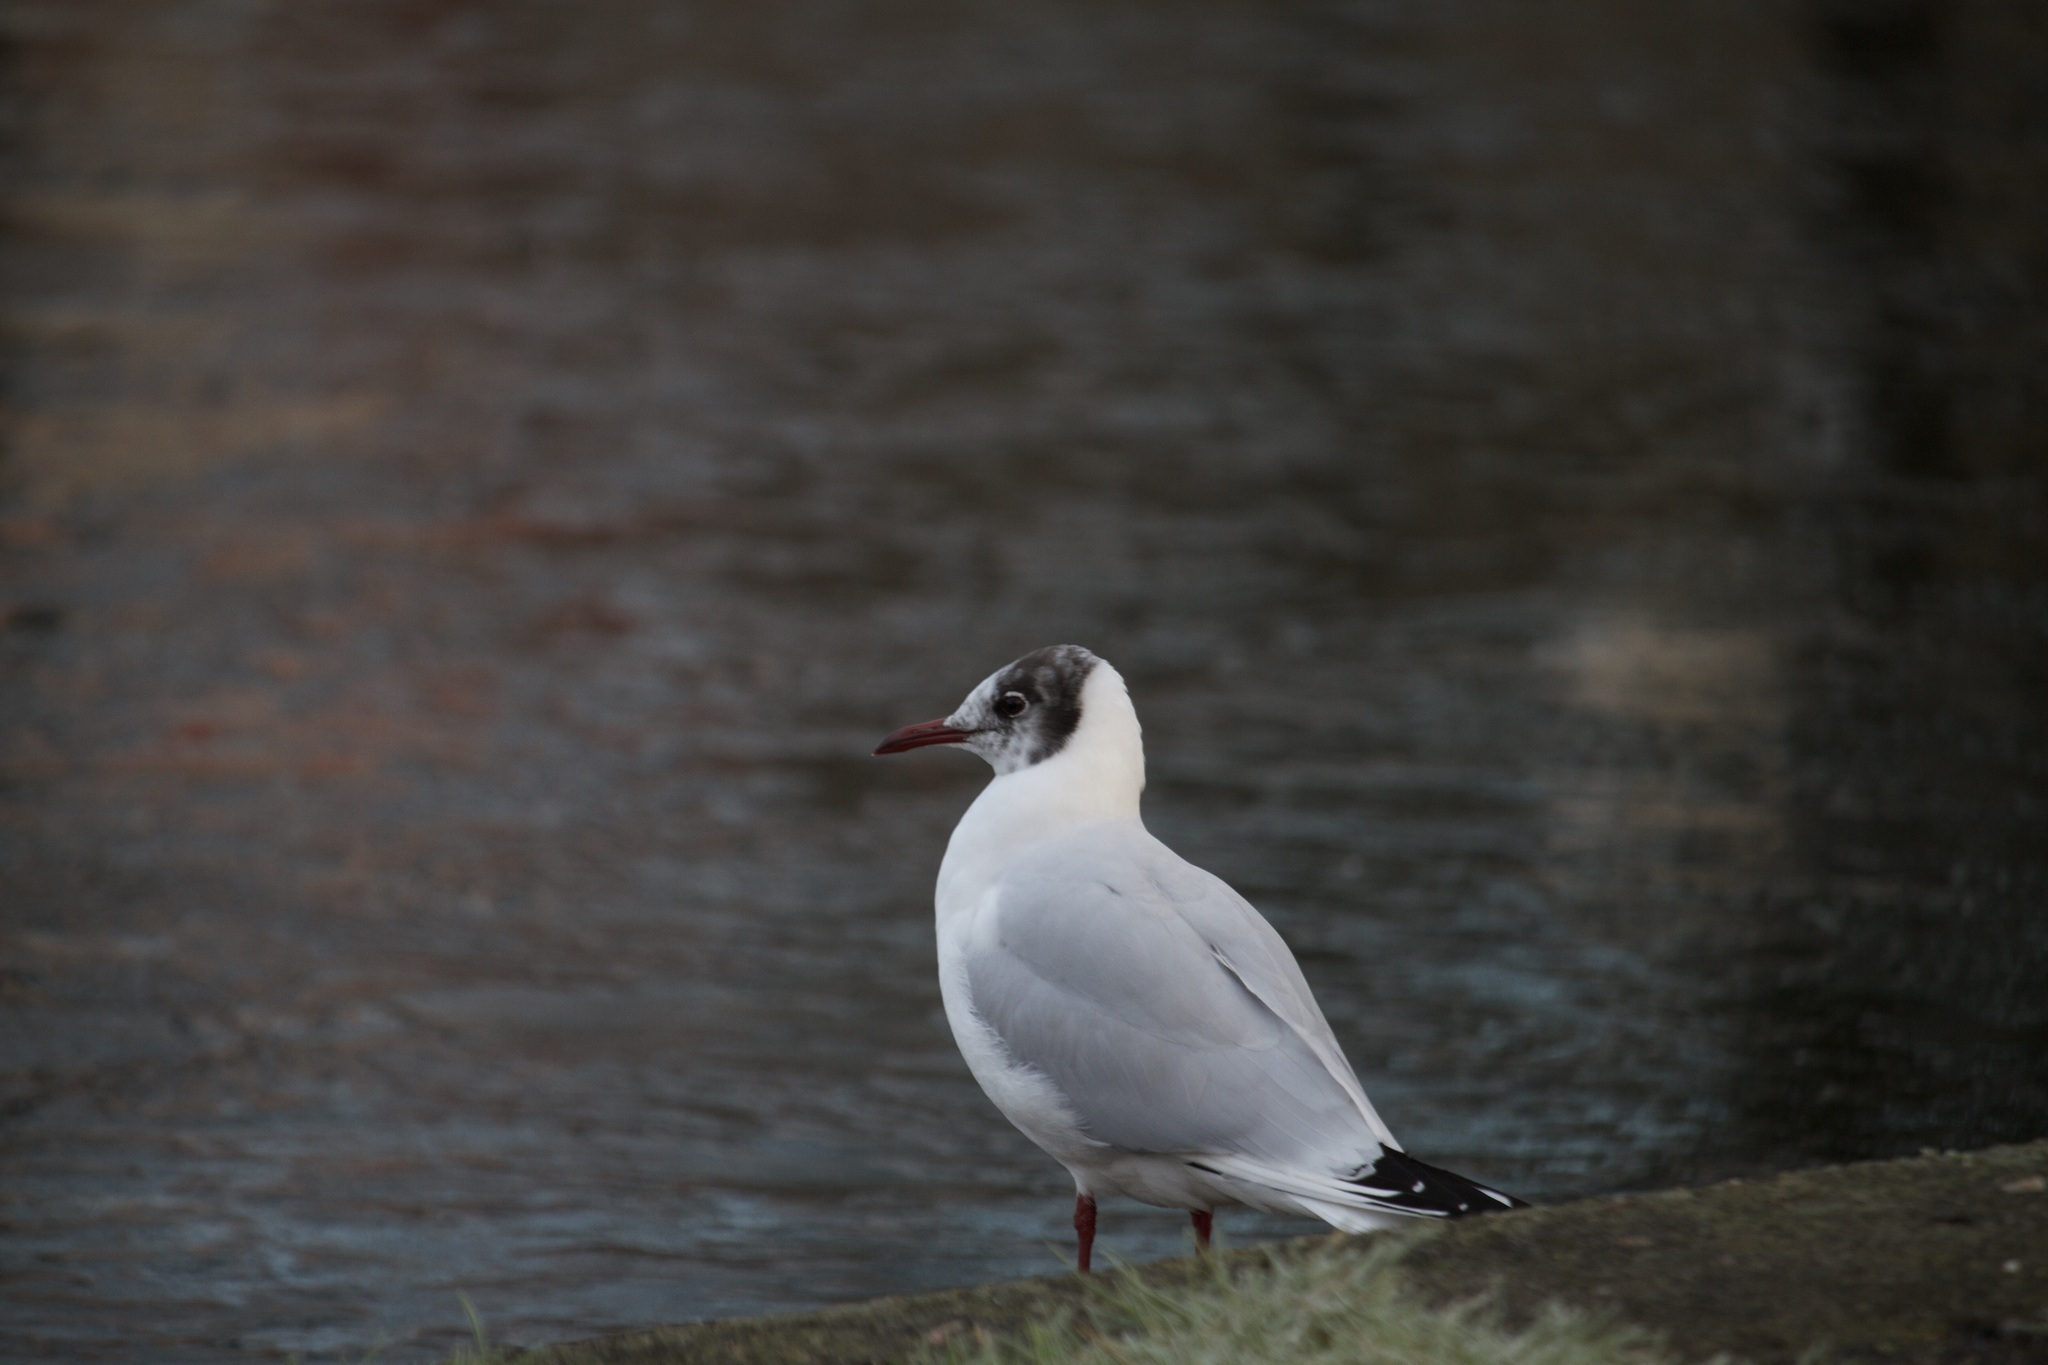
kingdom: Animalia
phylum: Chordata
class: Aves
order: Charadriiformes
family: Laridae
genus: Chroicocephalus
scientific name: Chroicocephalus ridibundus
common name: Black-headed gull
